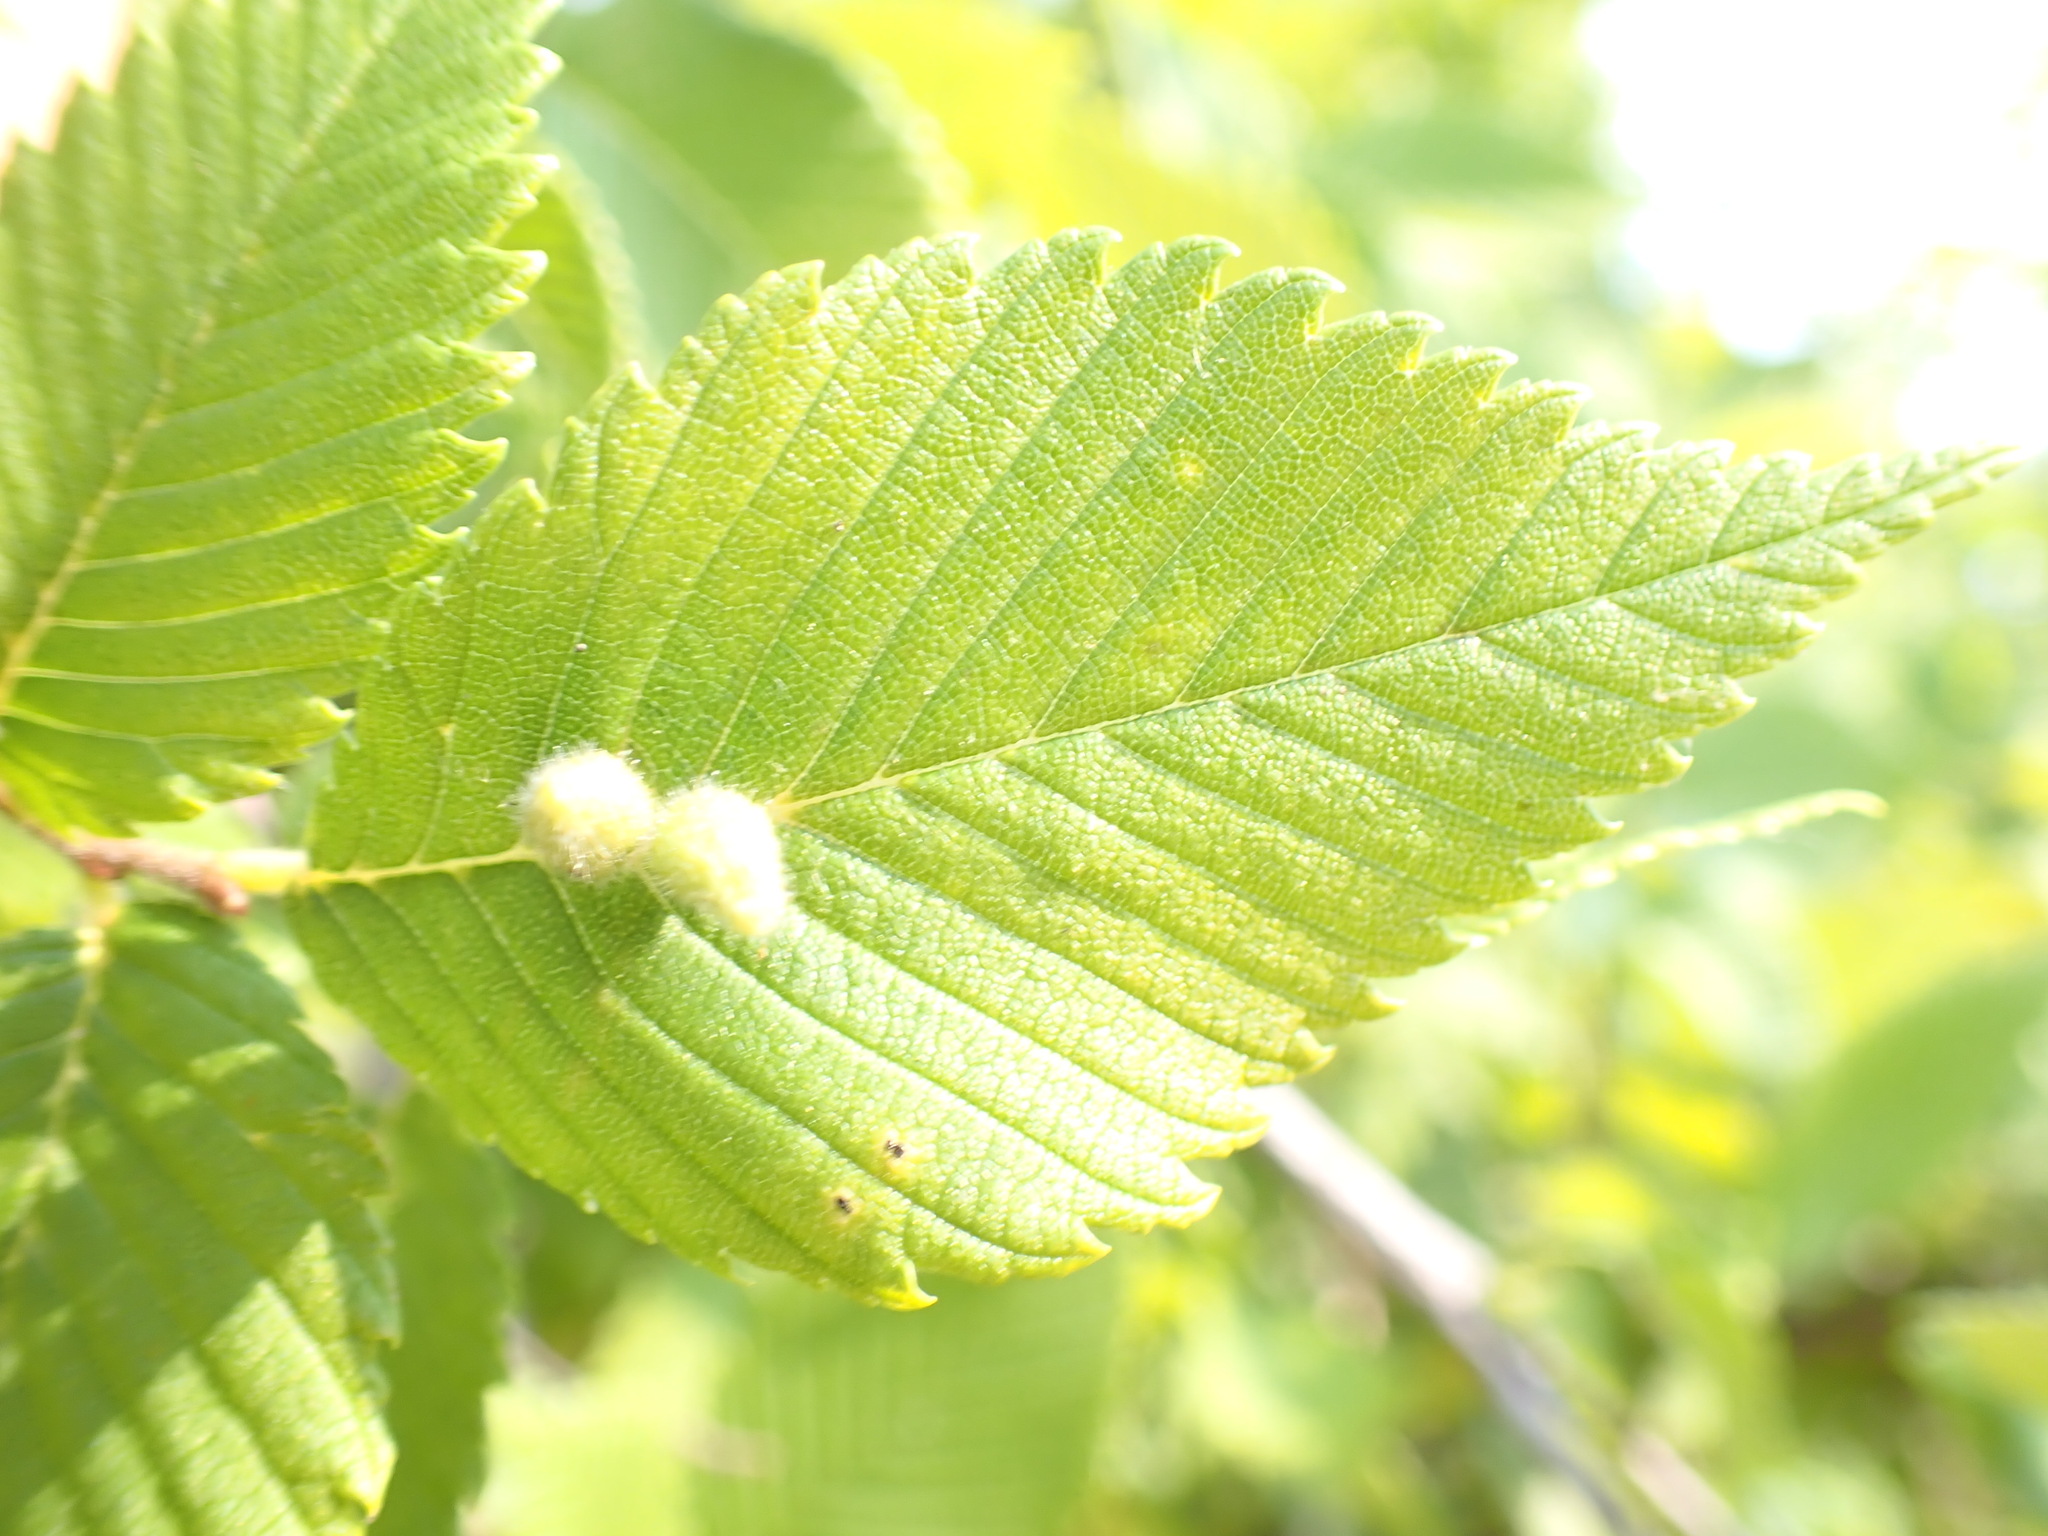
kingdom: Animalia
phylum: Arthropoda
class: Arachnida
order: Trombidiformes
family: Eriophyidae
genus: Aceria
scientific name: Aceria
